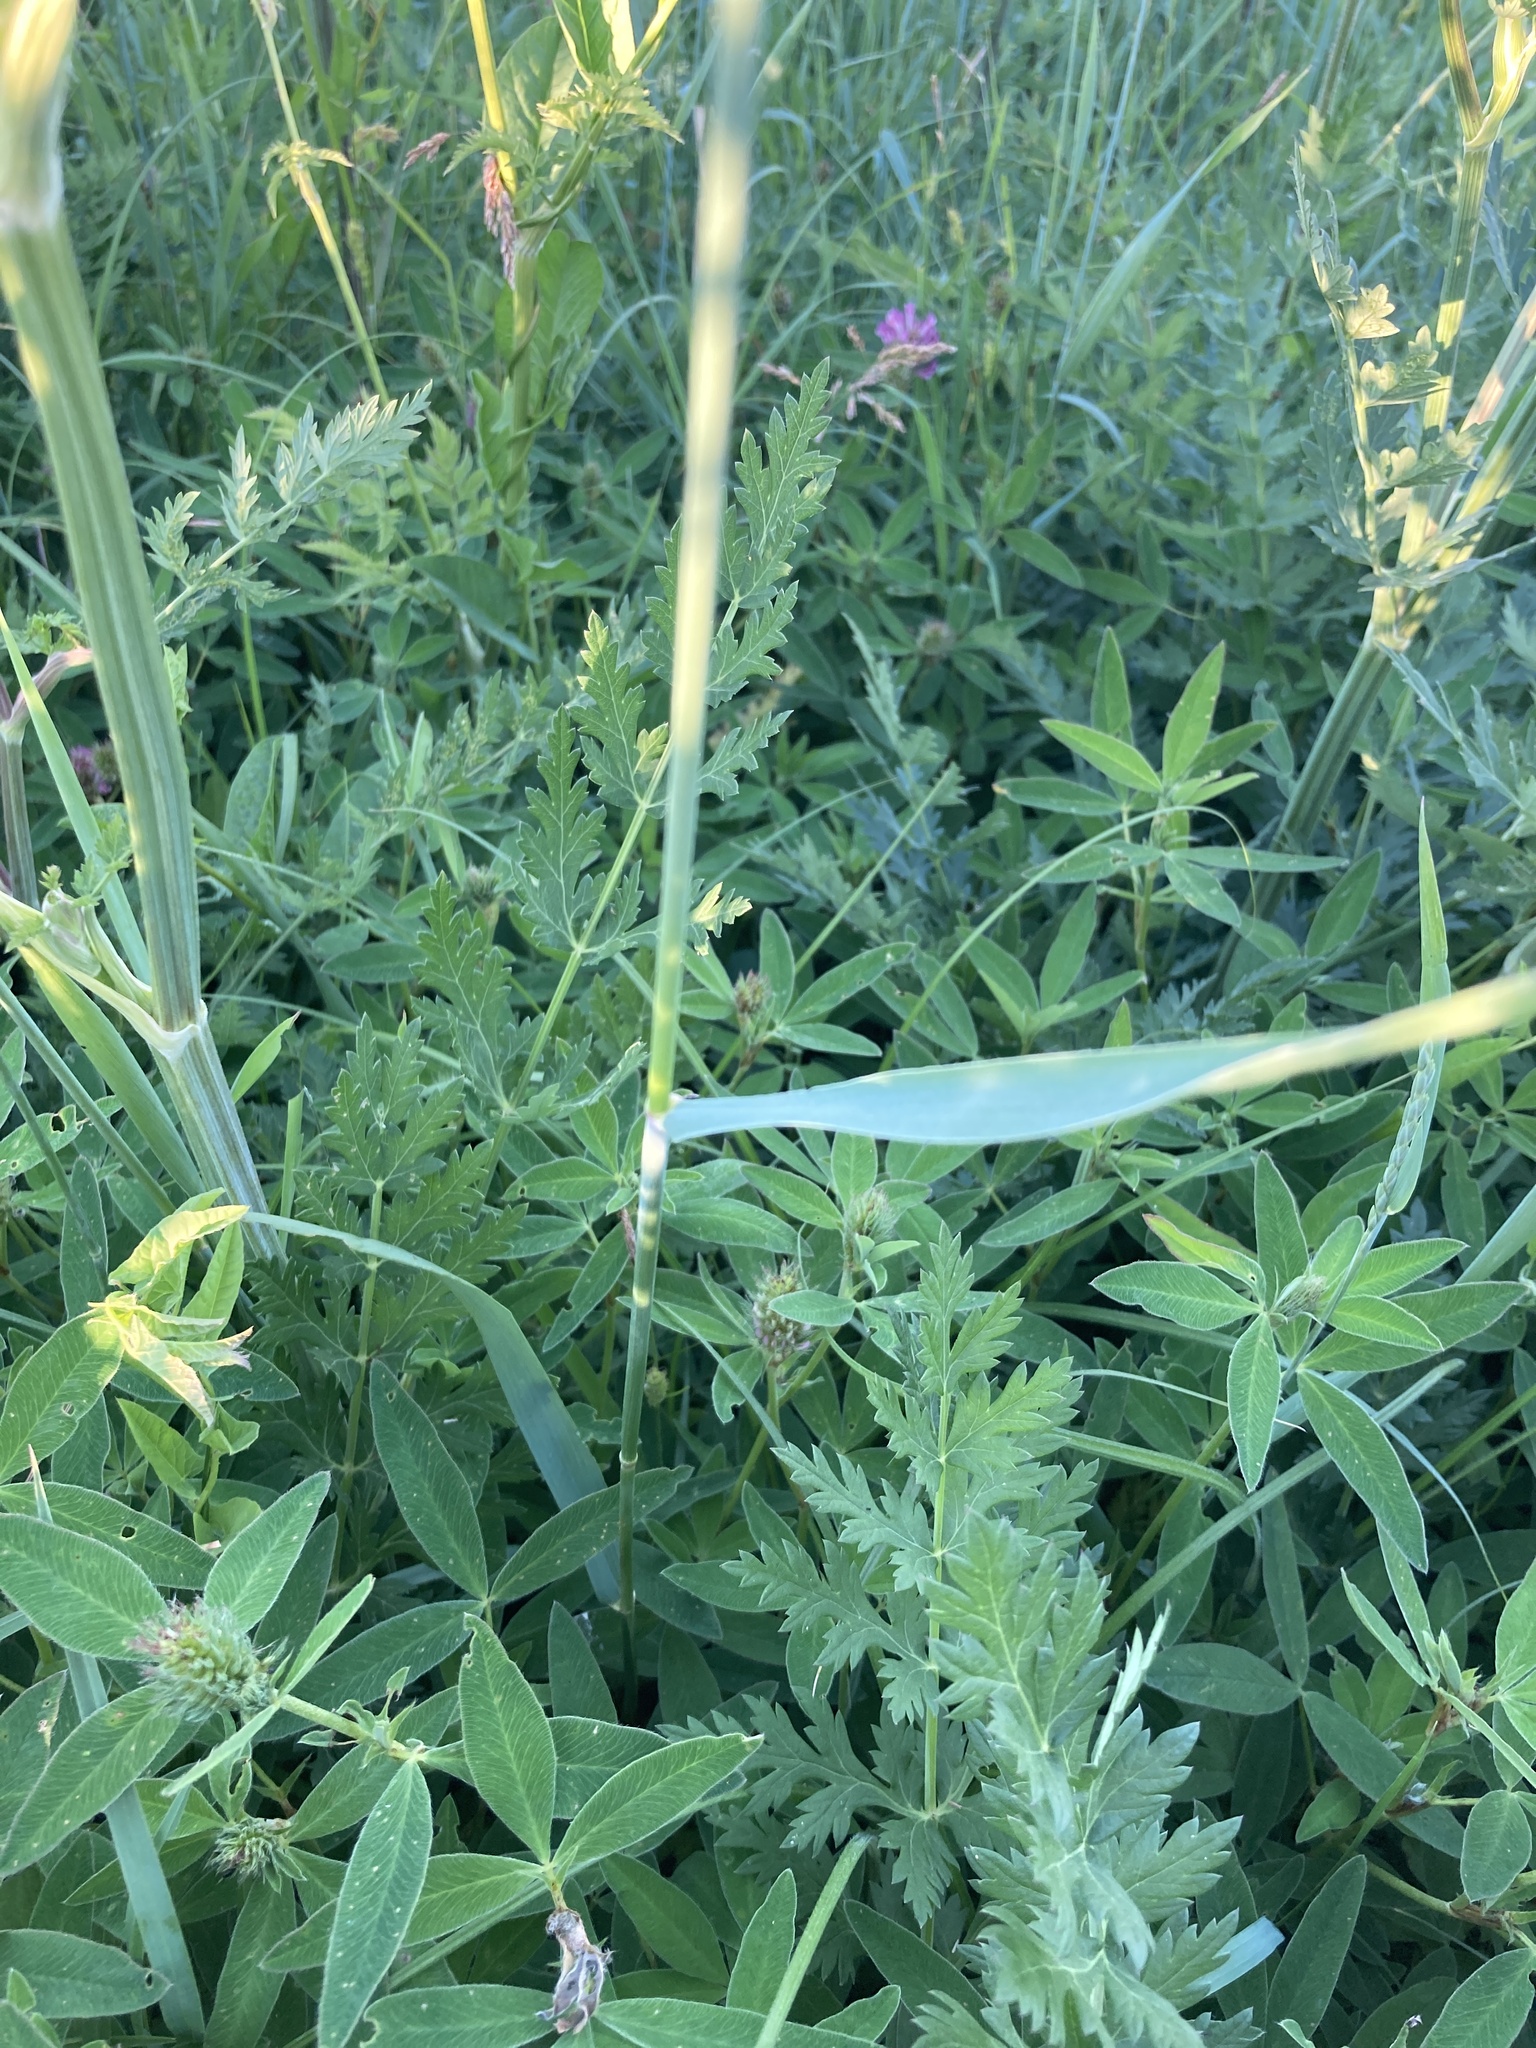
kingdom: Plantae
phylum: Tracheophyta
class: Liliopsida
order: Poales
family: Poaceae
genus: Elymus
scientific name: Elymus repens
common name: Quackgrass
